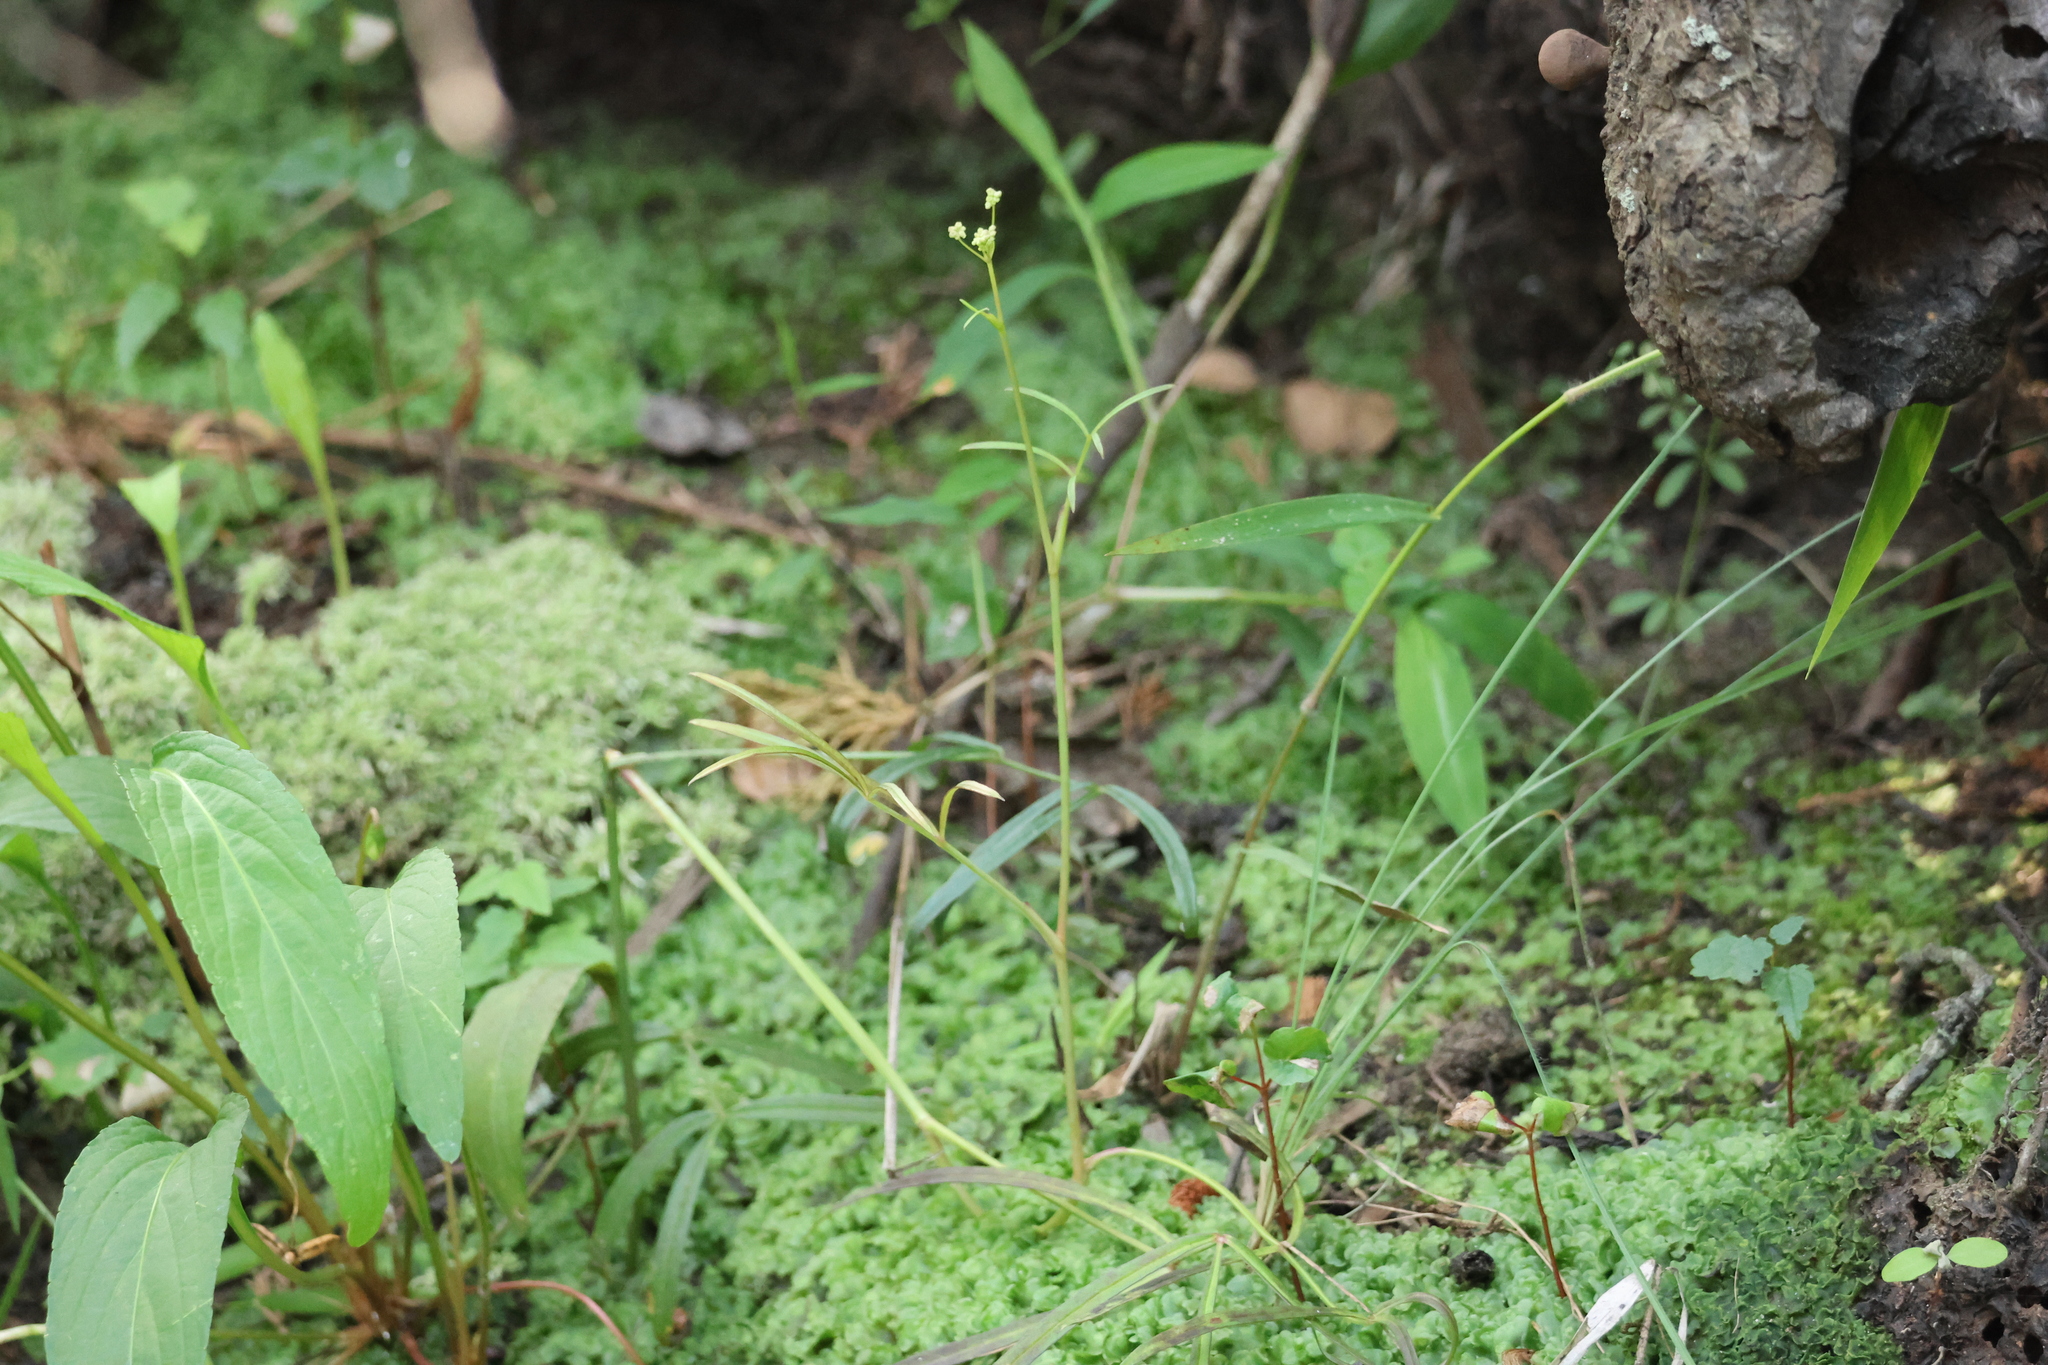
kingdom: Plantae
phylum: Tracheophyta
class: Magnoliopsida
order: Apiales
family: Apiaceae
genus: Oxypolis
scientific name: Oxypolis rigidior
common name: Cowbane
